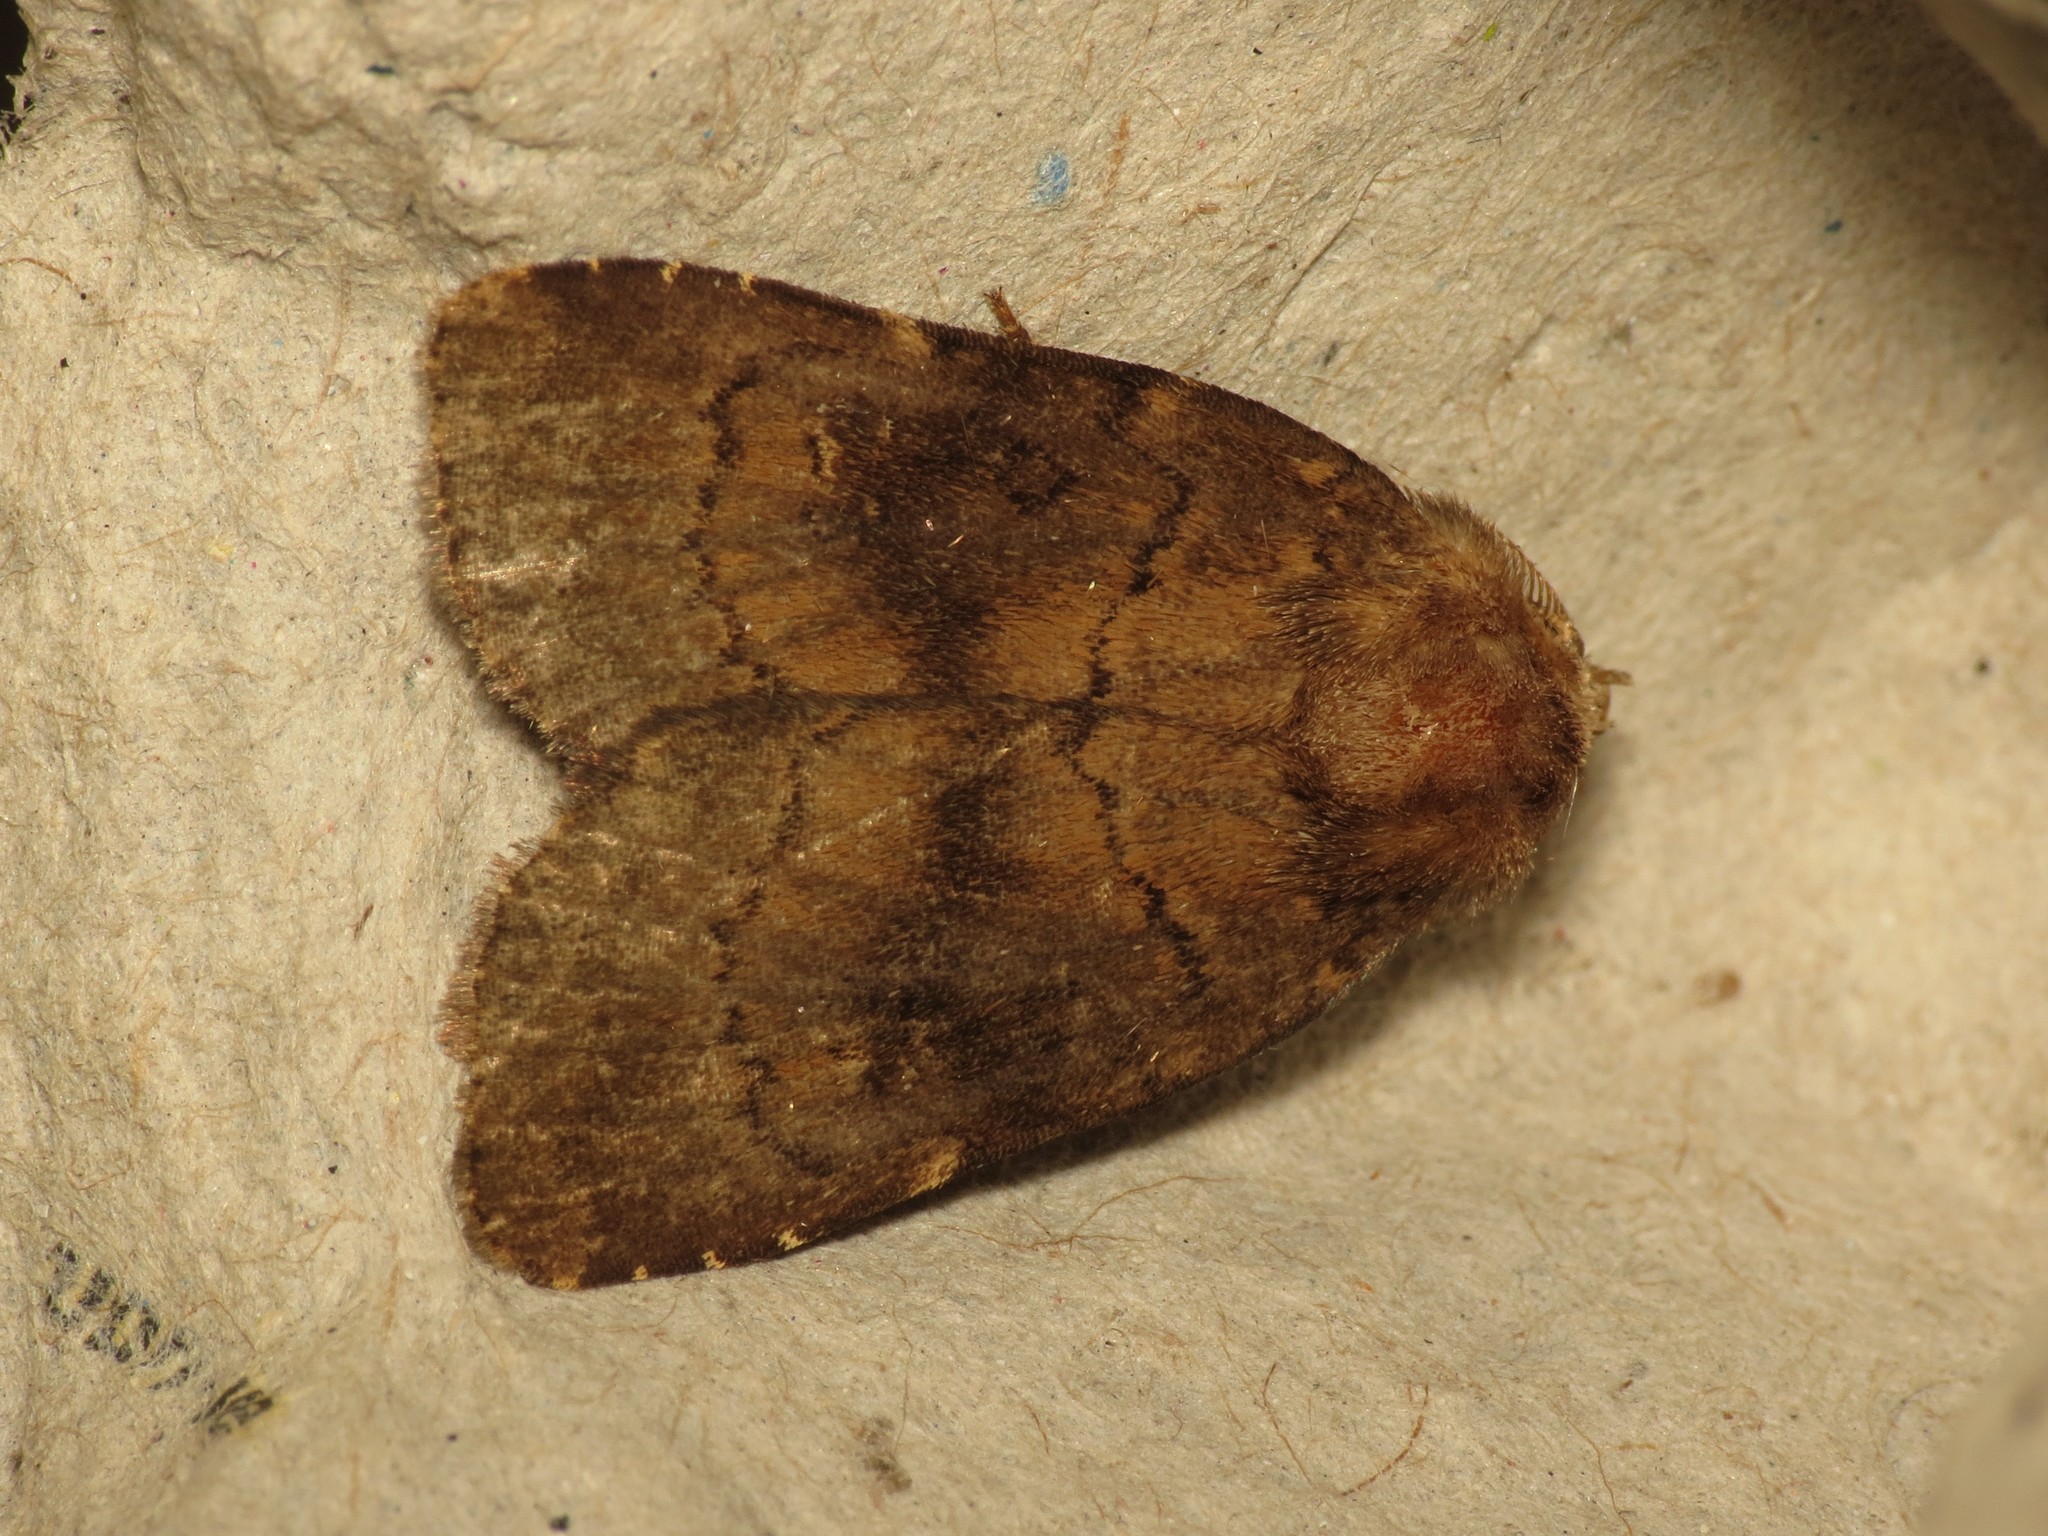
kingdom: Animalia
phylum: Arthropoda
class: Insecta
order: Lepidoptera
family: Noctuidae
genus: Charanyca
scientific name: Charanyca ferruginea
